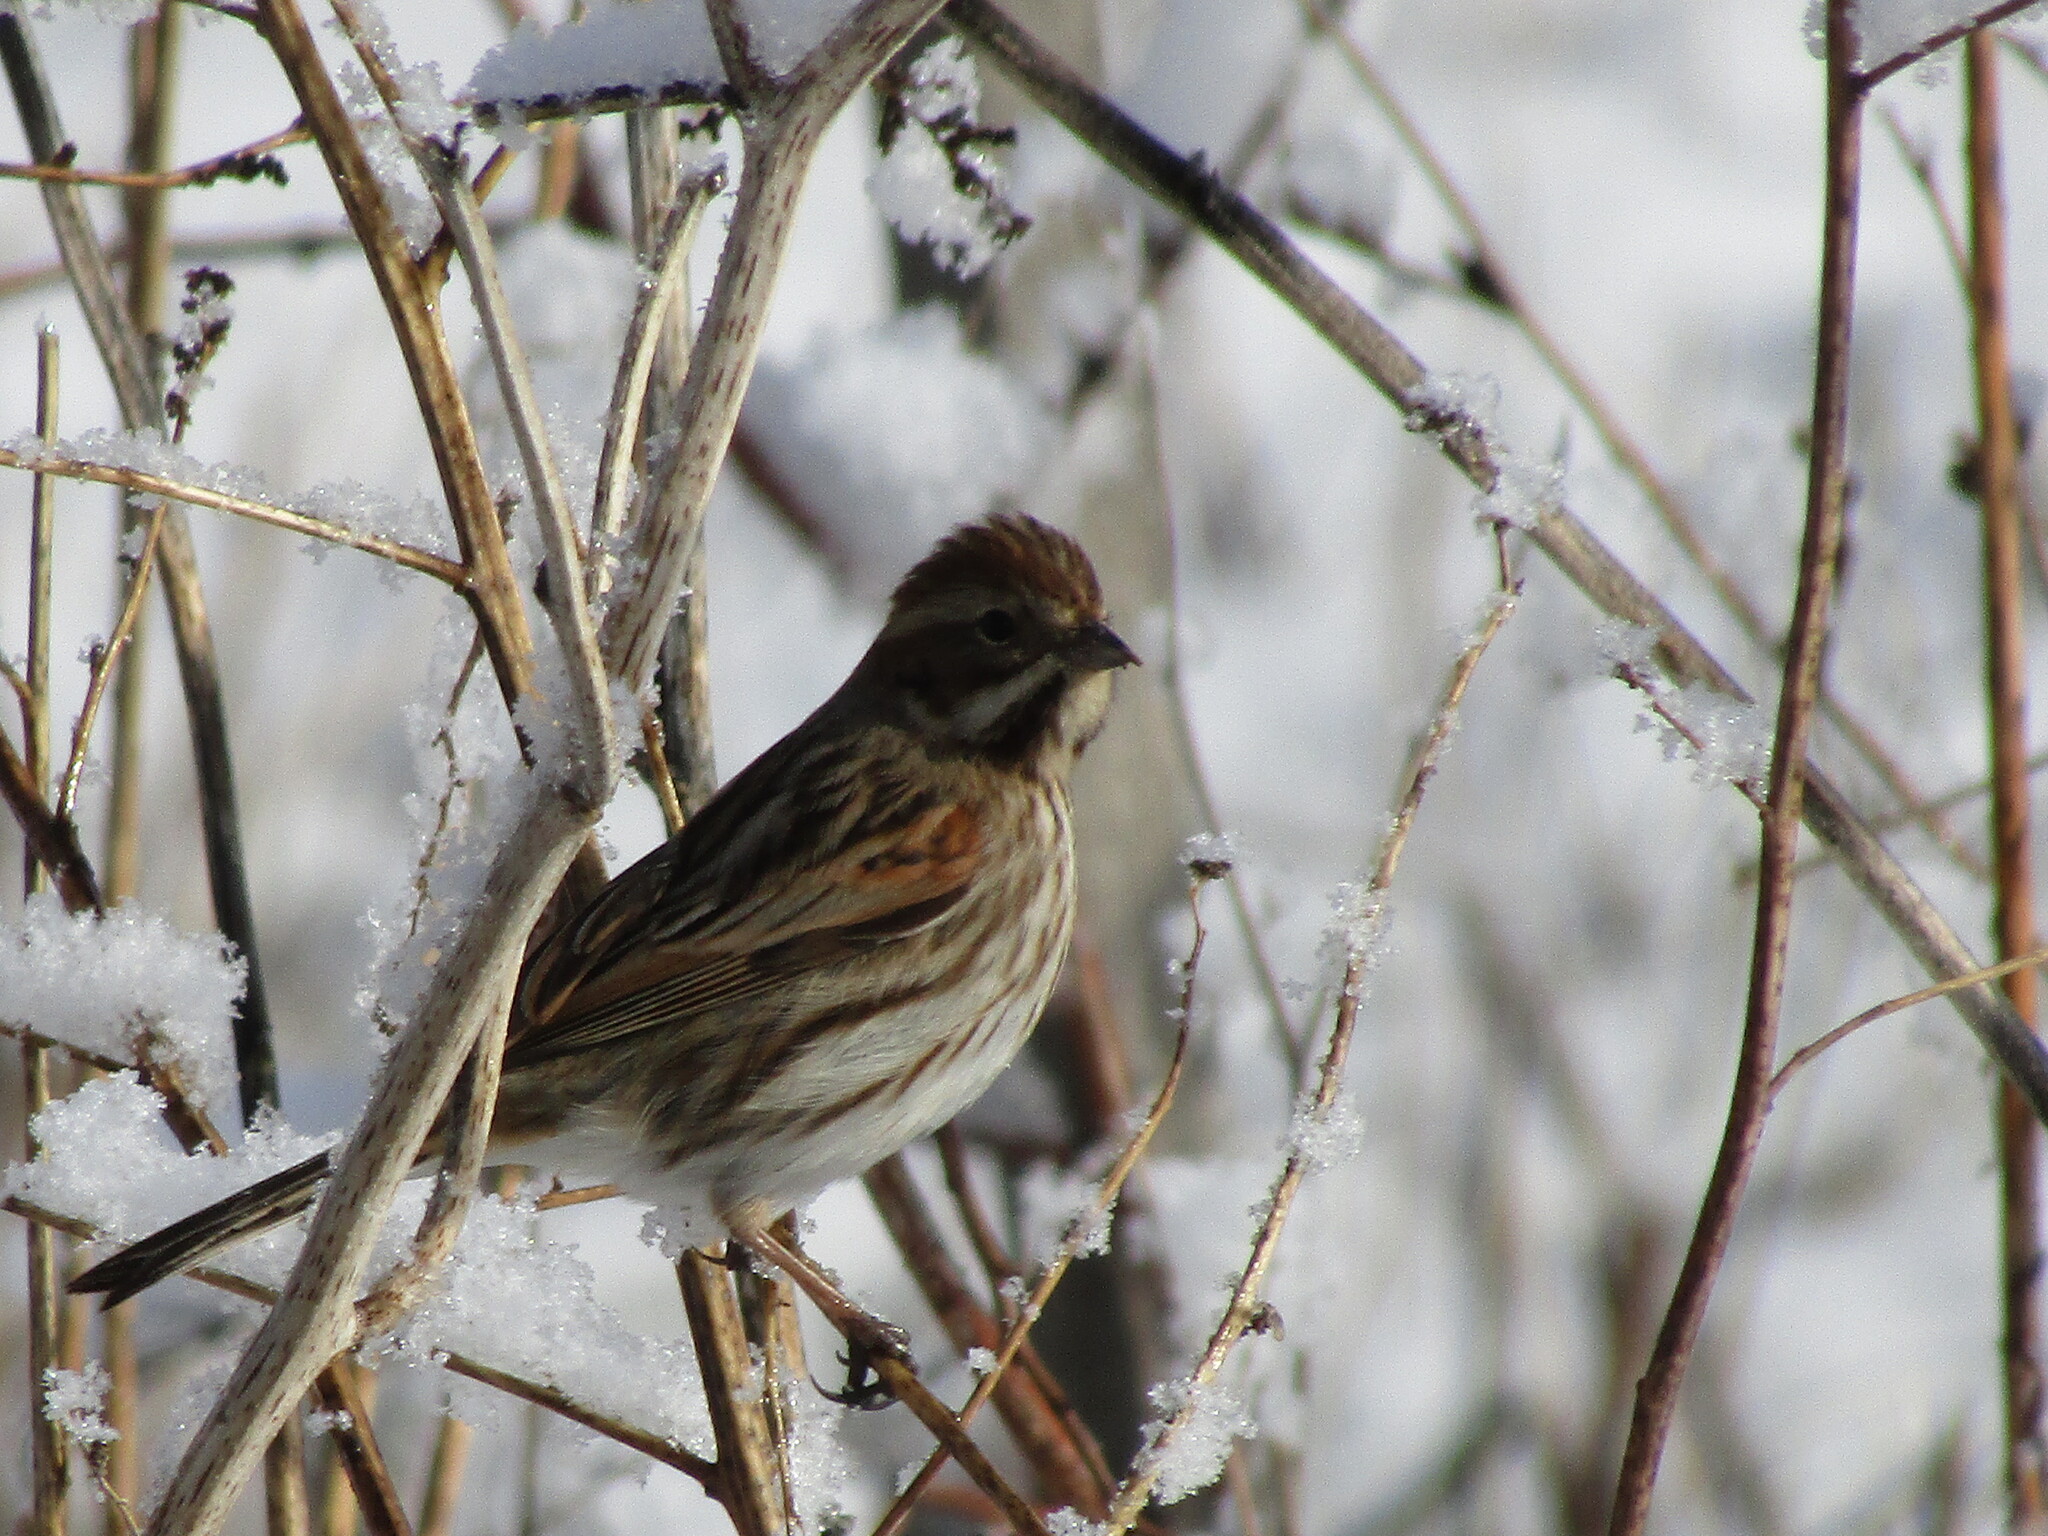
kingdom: Animalia
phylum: Chordata
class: Aves
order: Passeriformes
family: Emberizidae
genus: Emberiza
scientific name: Emberiza schoeniclus
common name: Reed bunting
